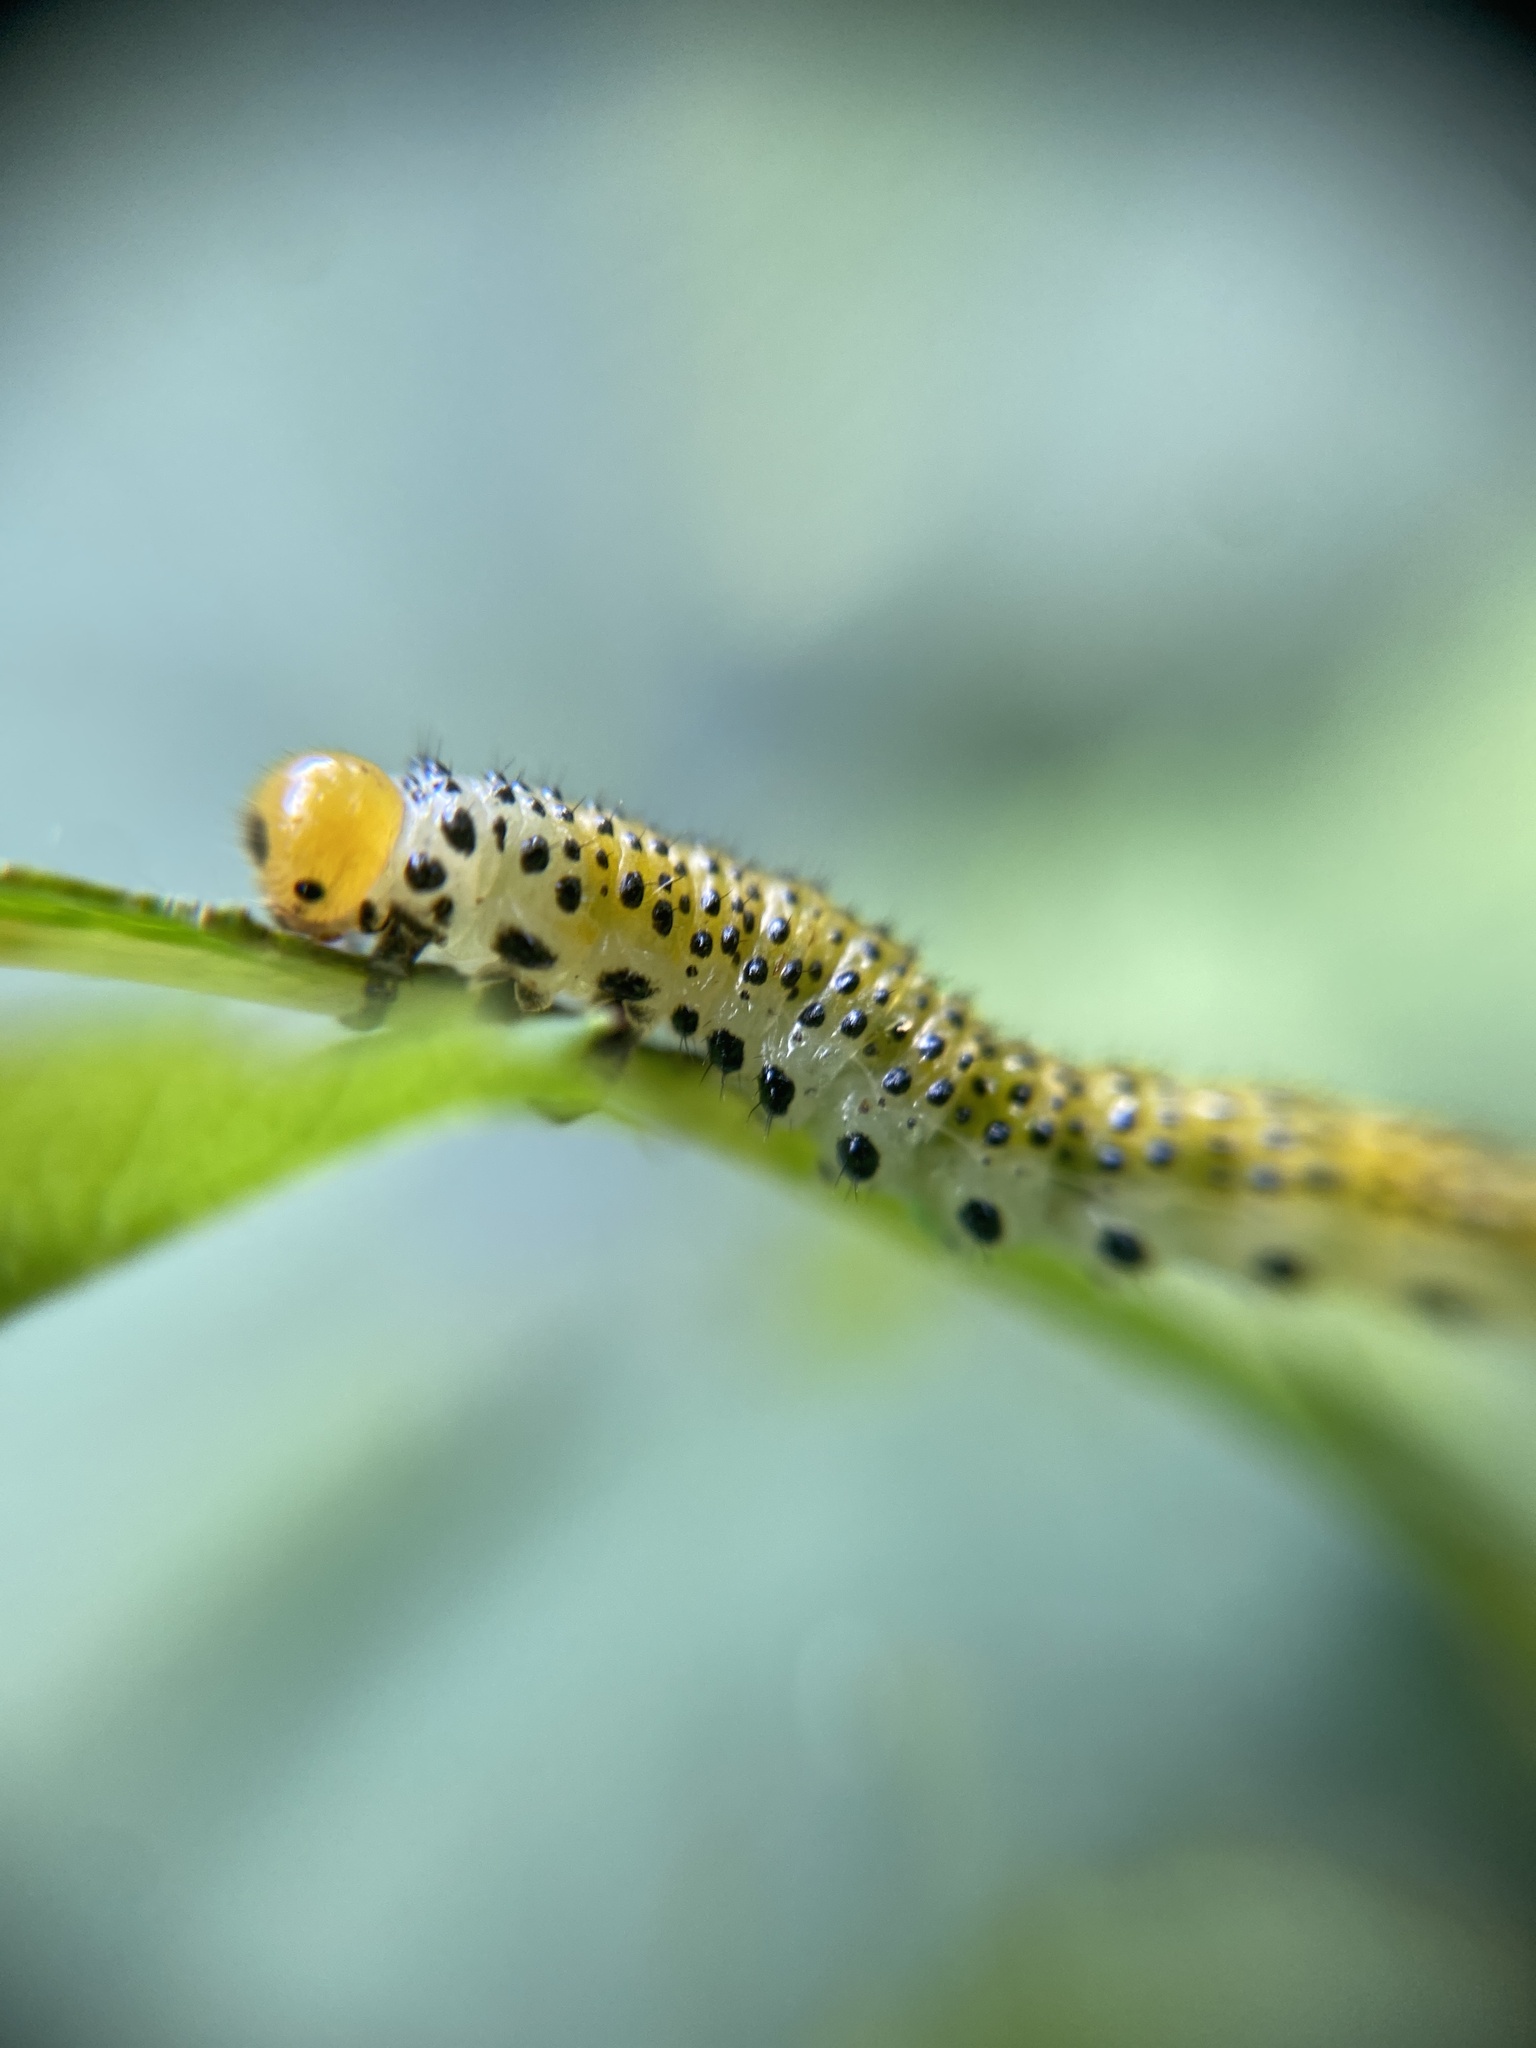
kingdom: Animalia
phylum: Arthropoda
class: Insecta
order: Hymenoptera
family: Argidae
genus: Arge
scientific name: Arge pagana
